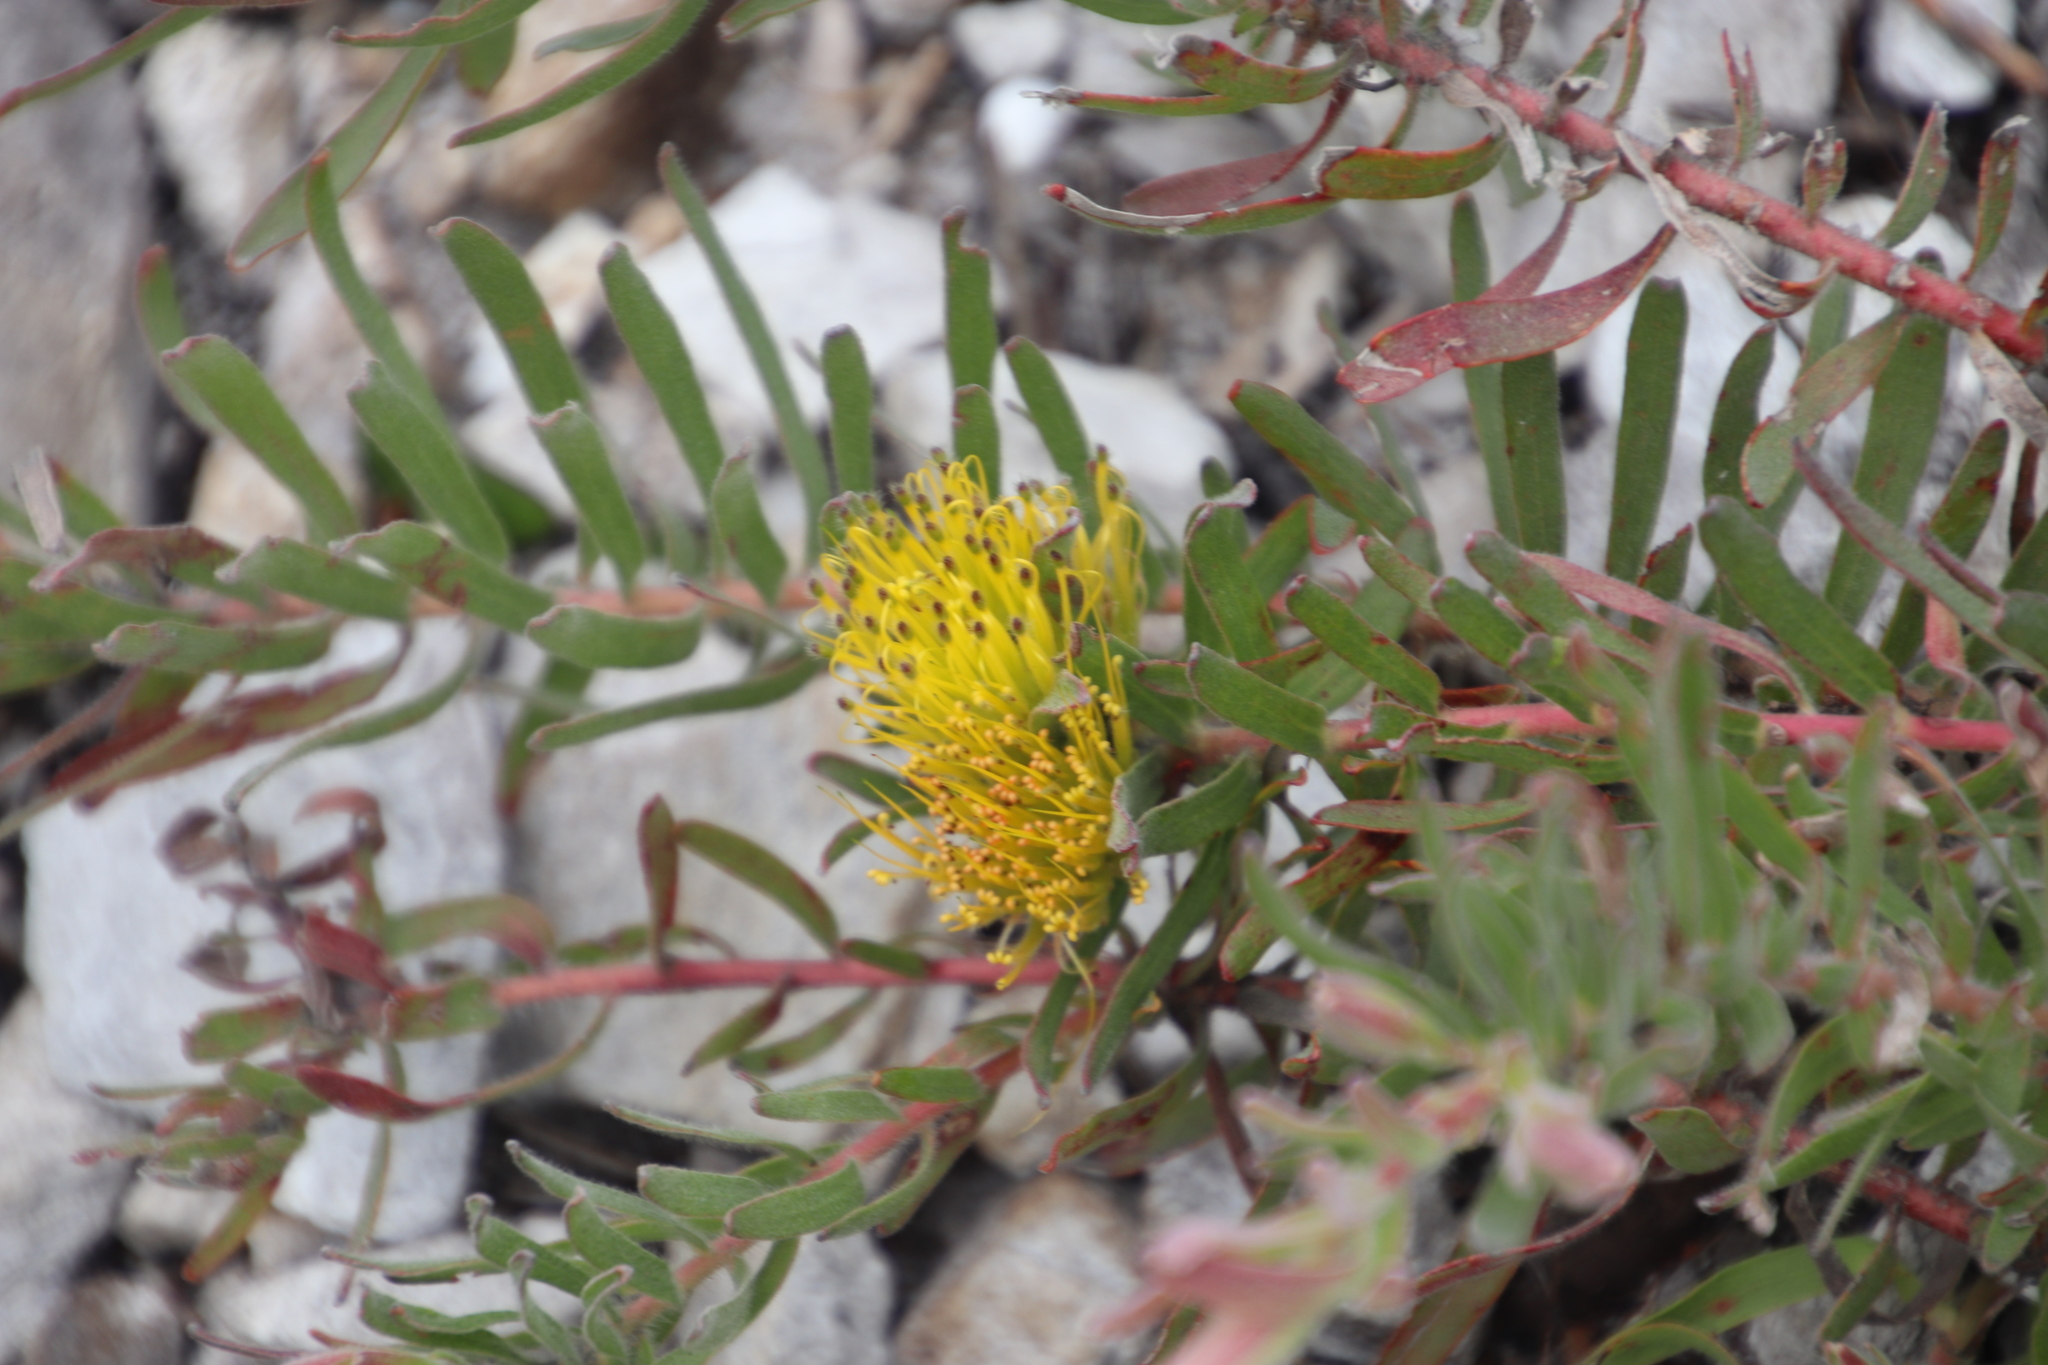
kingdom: Plantae
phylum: Tracheophyta
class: Magnoliopsida
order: Proteales
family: Proteaceae
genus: Leucospermum
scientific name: Leucospermum gracile
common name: Hermanus pincushion
